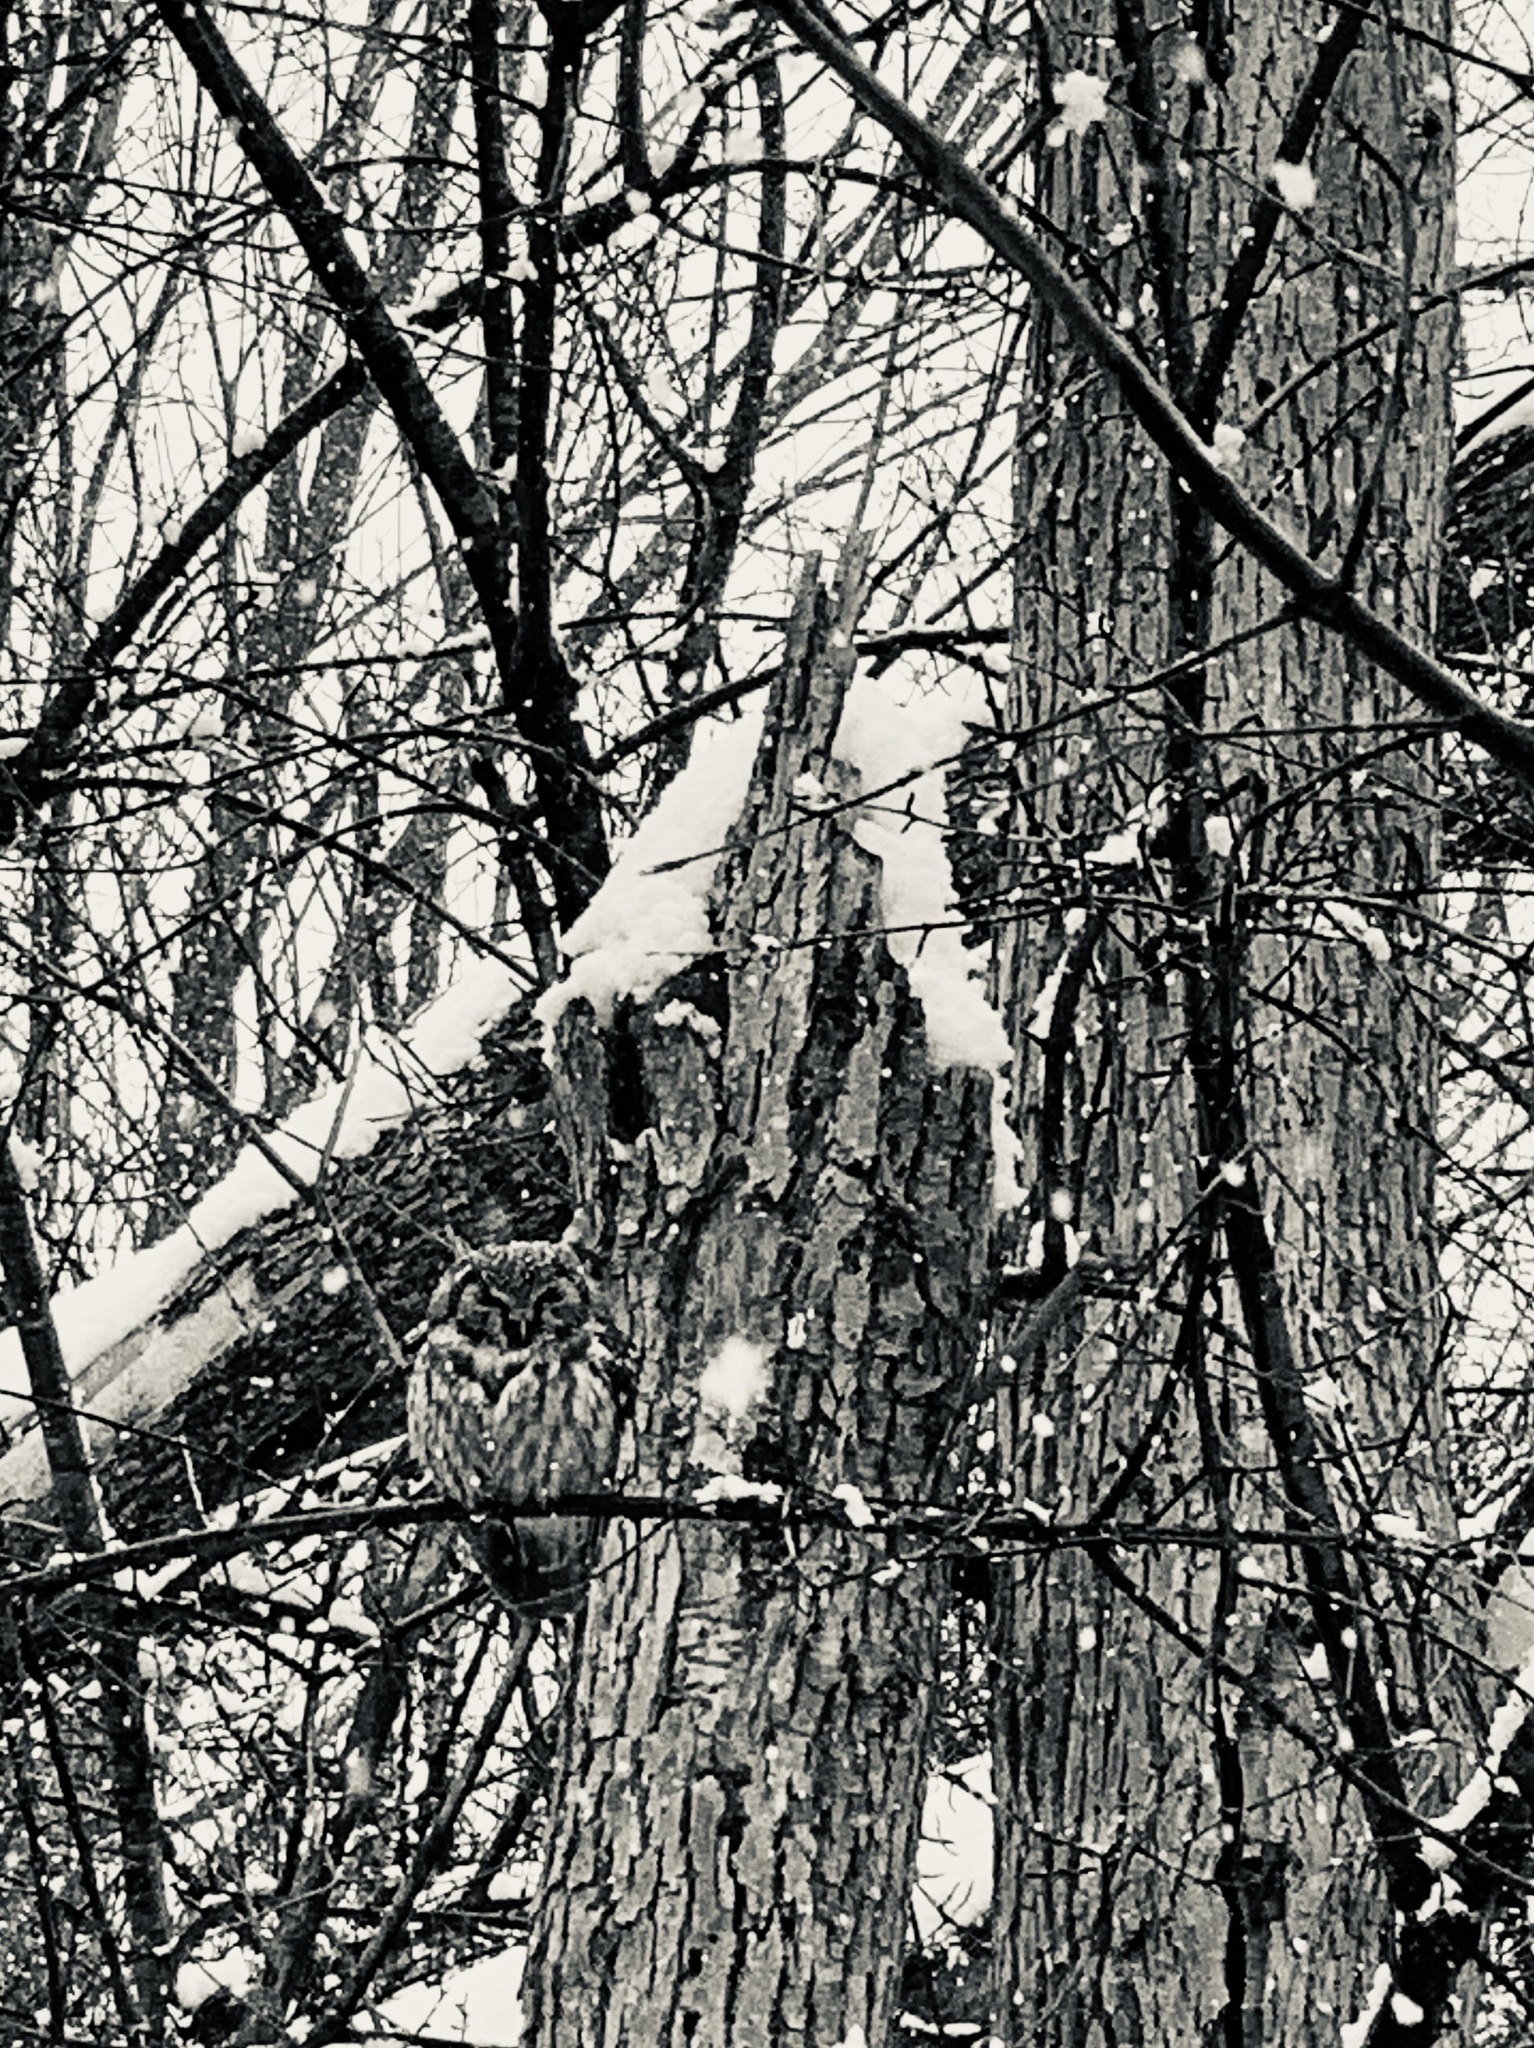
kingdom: Animalia
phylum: Chordata
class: Aves
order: Strigiformes
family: Strigidae
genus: Aegolius
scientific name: Aegolius funereus
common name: Boreal owl
